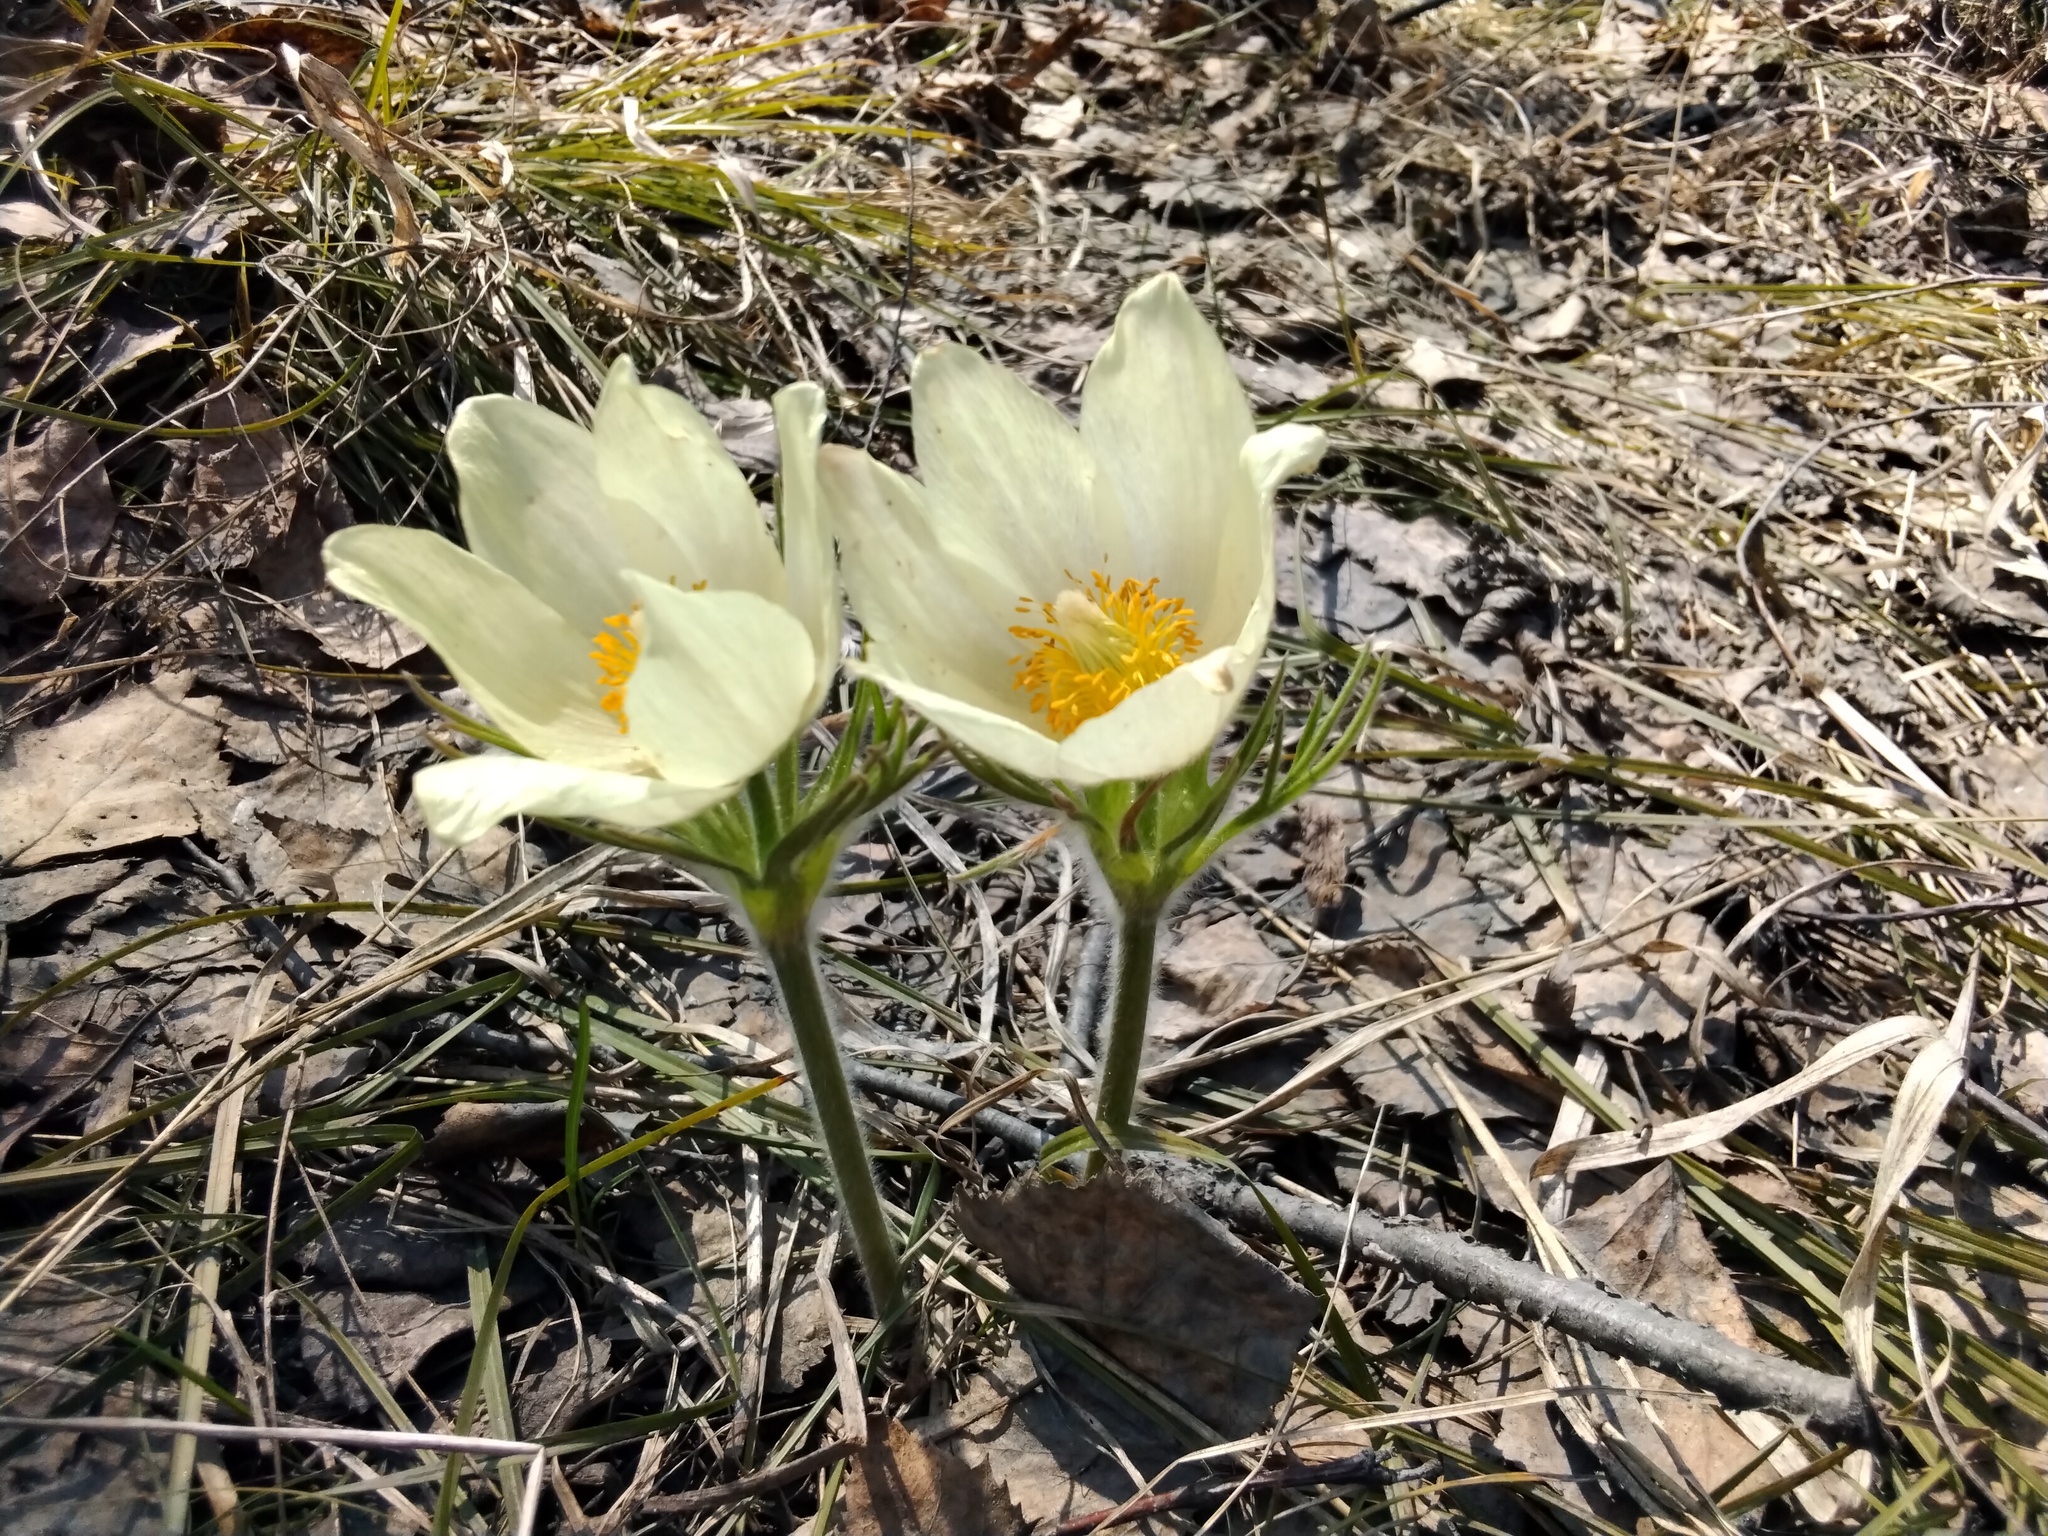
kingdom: Plantae
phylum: Tracheophyta
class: Magnoliopsida
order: Ranunculales
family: Ranunculaceae
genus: Pulsatilla
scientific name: Pulsatilla patens
